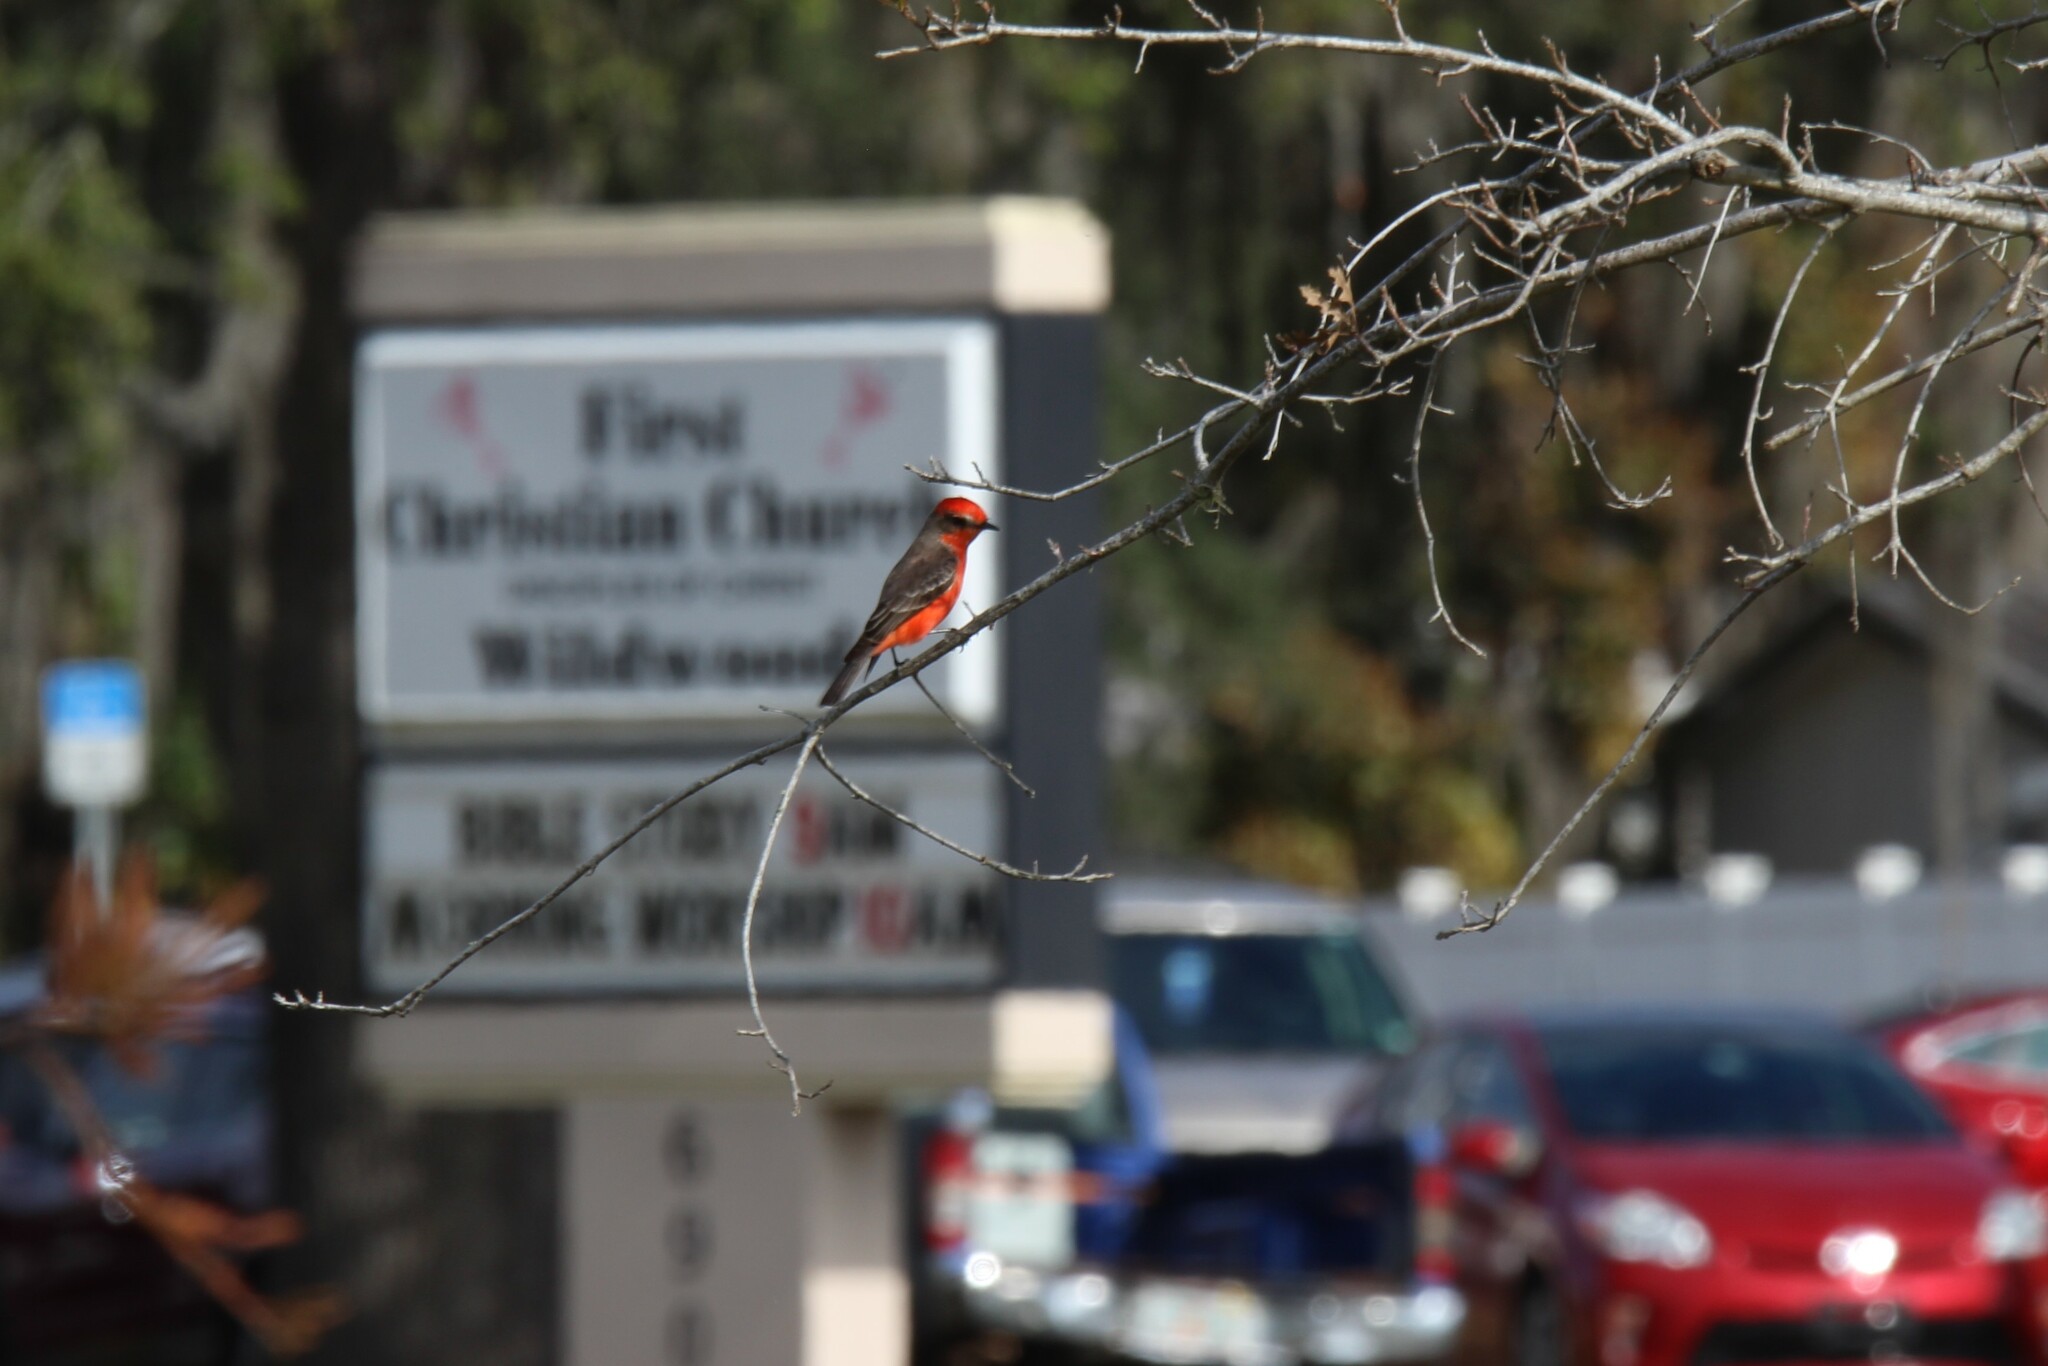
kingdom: Animalia
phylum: Chordata
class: Aves
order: Passeriformes
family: Tyrannidae
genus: Pyrocephalus
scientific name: Pyrocephalus rubinus
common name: Vermilion flycatcher
